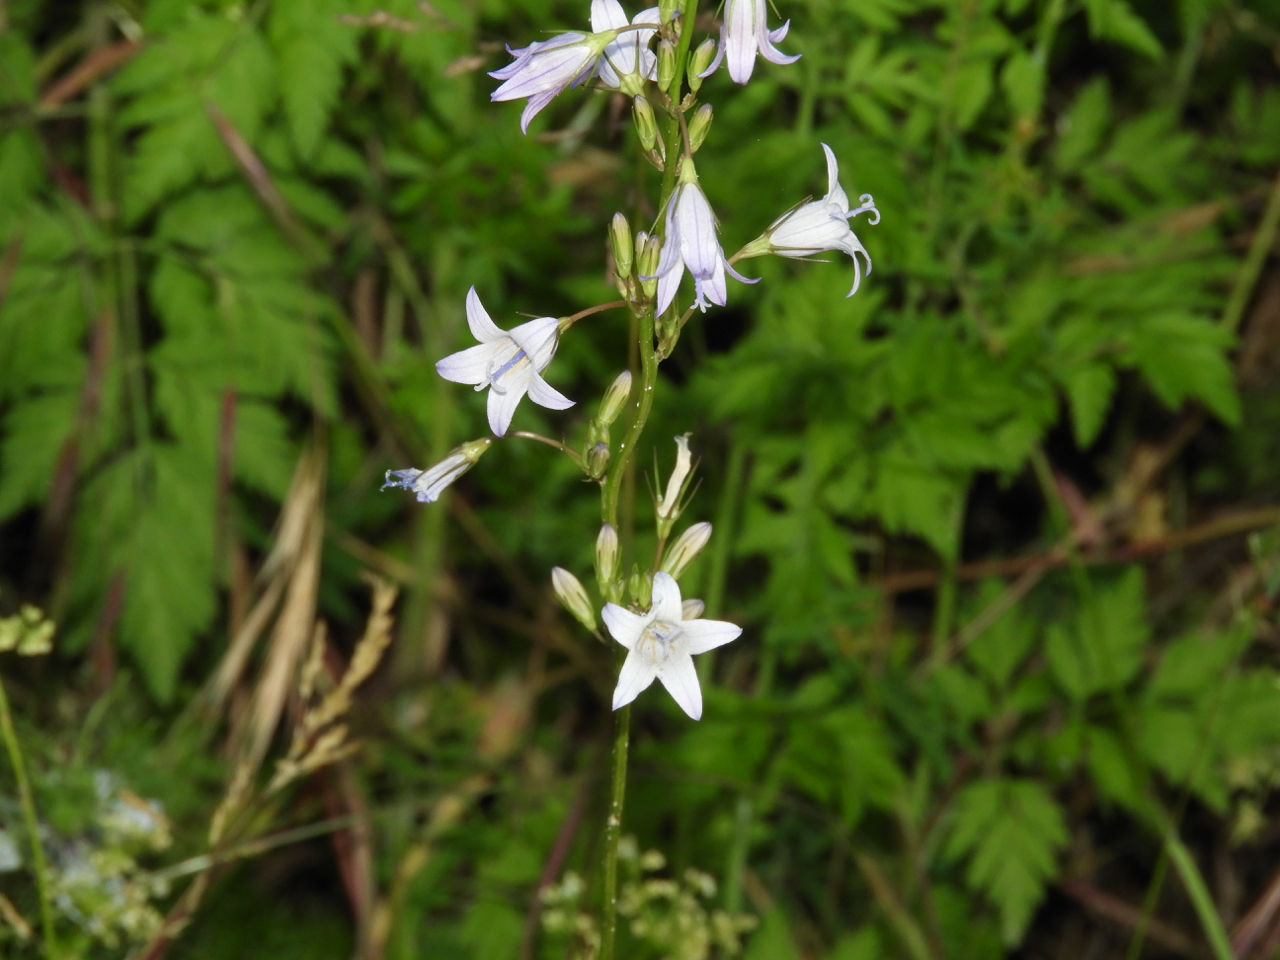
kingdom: Plantae
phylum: Tracheophyta
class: Magnoliopsida
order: Asterales
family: Campanulaceae
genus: Campanula
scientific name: Campanula rapunculus
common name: Rampion bellflower
